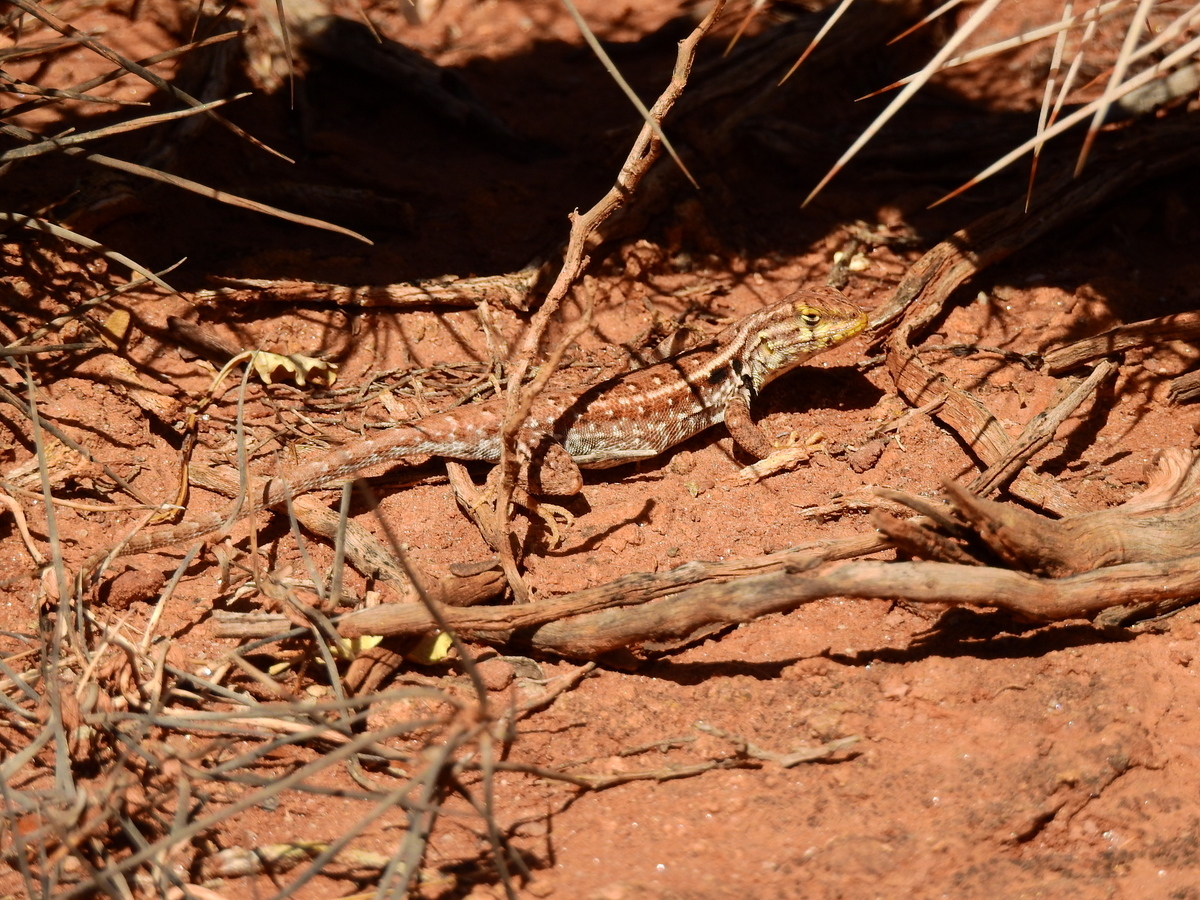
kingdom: Animalia
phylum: Chordata
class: Squamata
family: Liolaemidae
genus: Liolaemus
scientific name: Liolaemus darwinii
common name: Darwin's tree iguana
